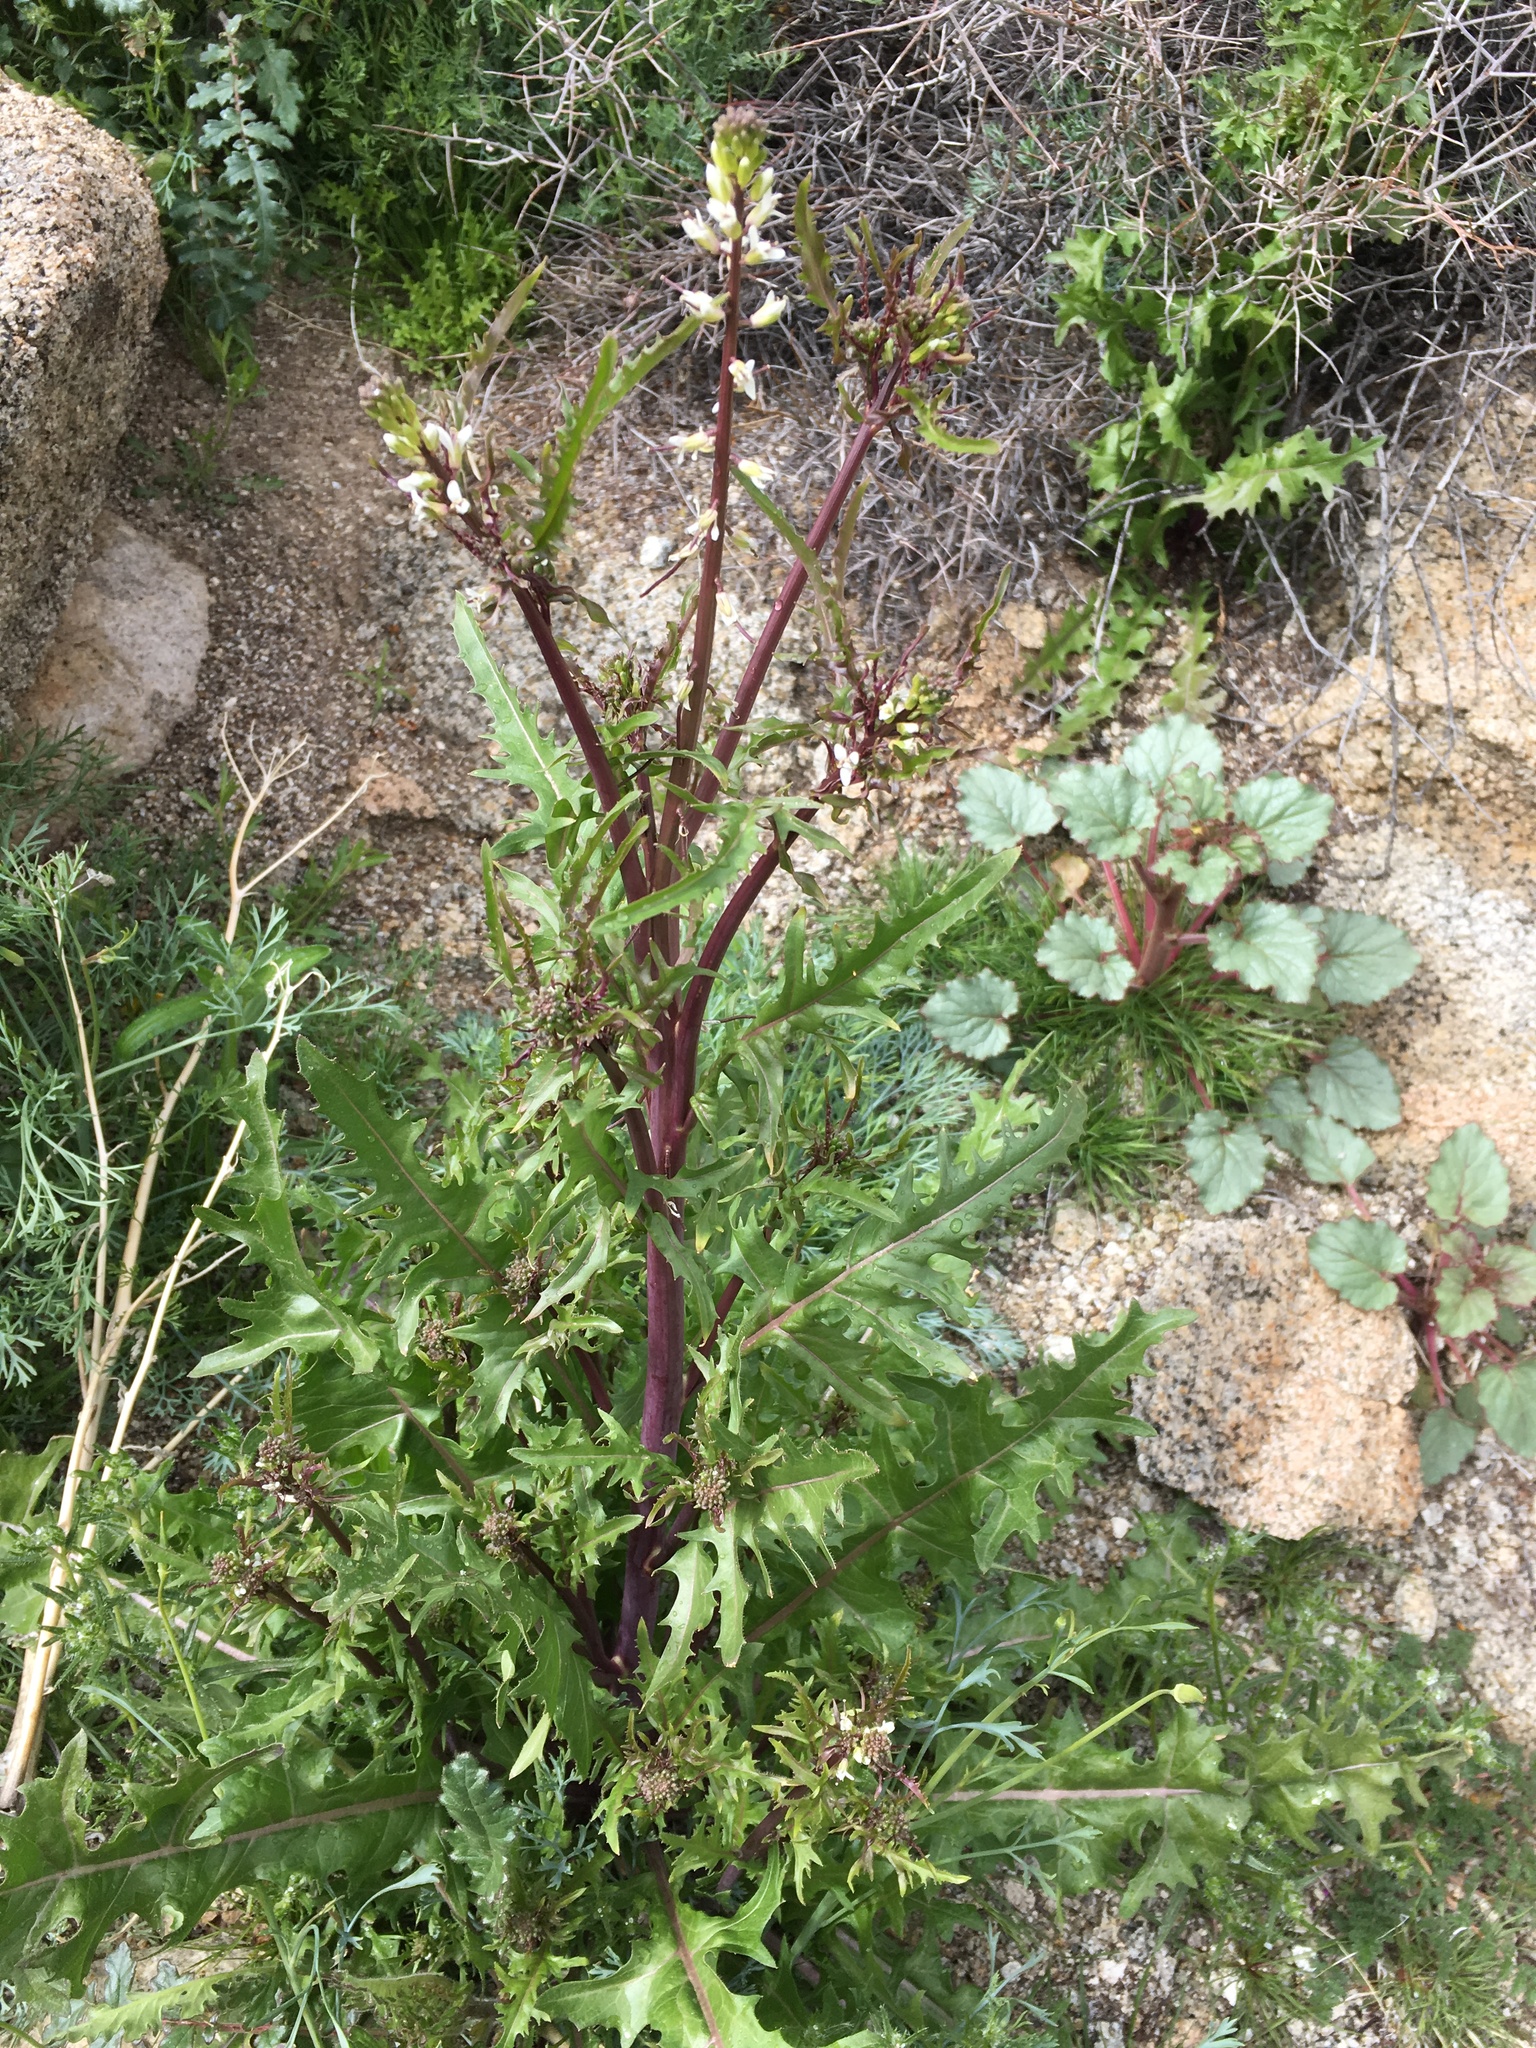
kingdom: Plantae
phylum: Tracheophyta
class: Magnoliopsida
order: Brassicales
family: Brassicaceae
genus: Streptanthus
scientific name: Streptanthus lasiophyllus
